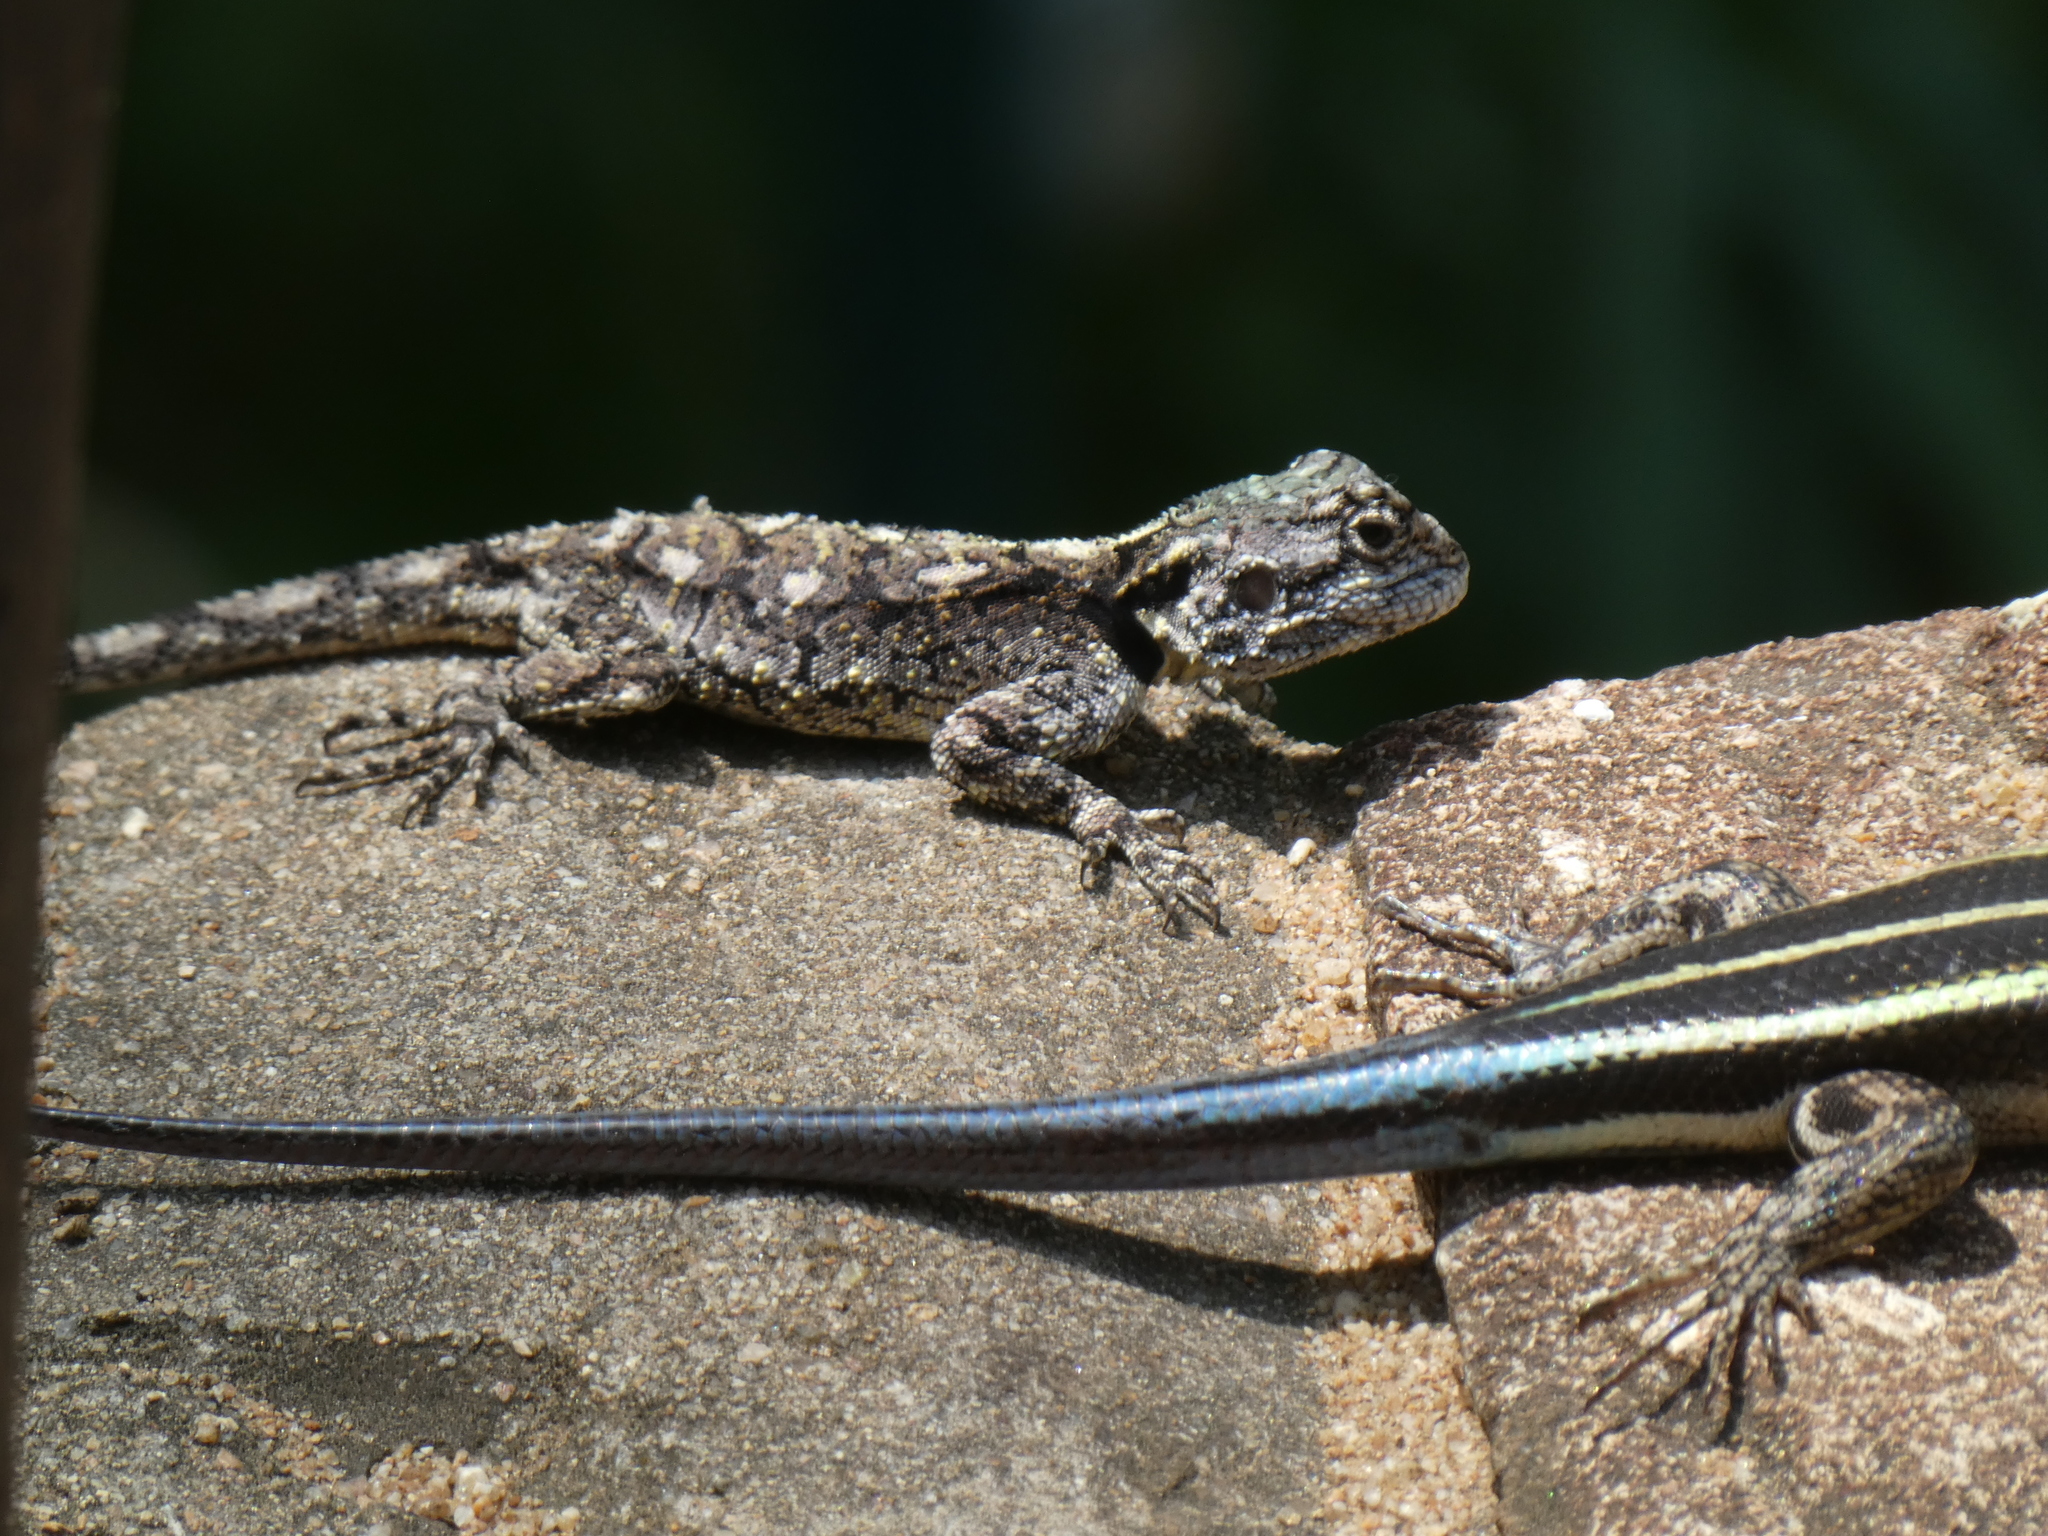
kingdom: Animalia
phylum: Chordata
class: Squamata
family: Agamidae
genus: Acanthocercus
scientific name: Acanthocercus atricollis
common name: Southern tree agama
